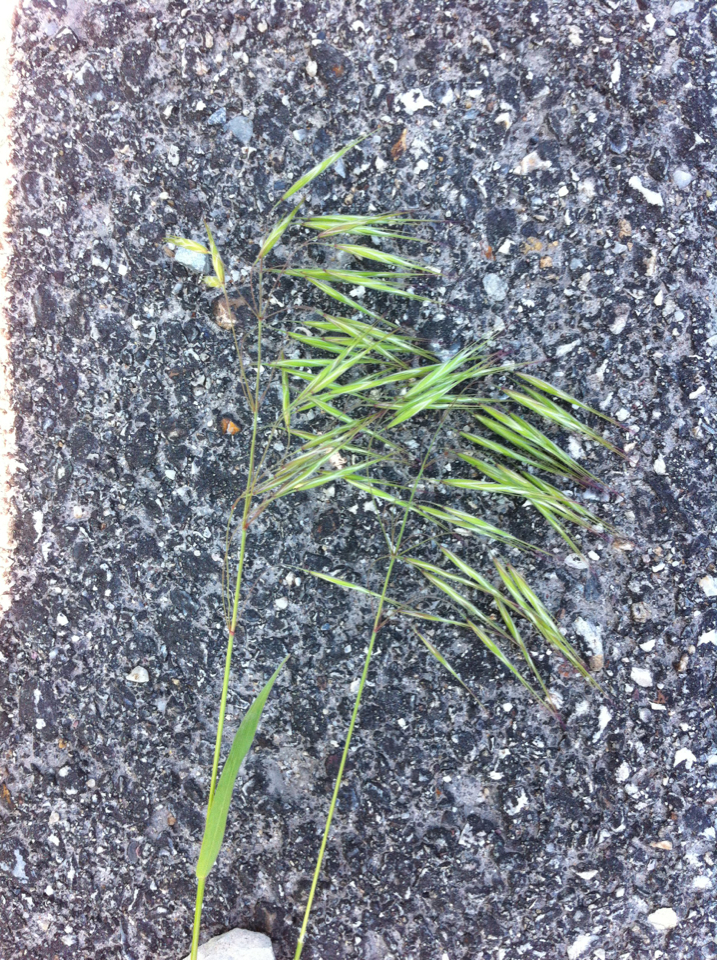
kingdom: Plantae
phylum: Tracheophyta
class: Liliopsida
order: Poales
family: Poaceae
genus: Bromus
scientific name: Bromus tectorum
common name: Cheatgrass
